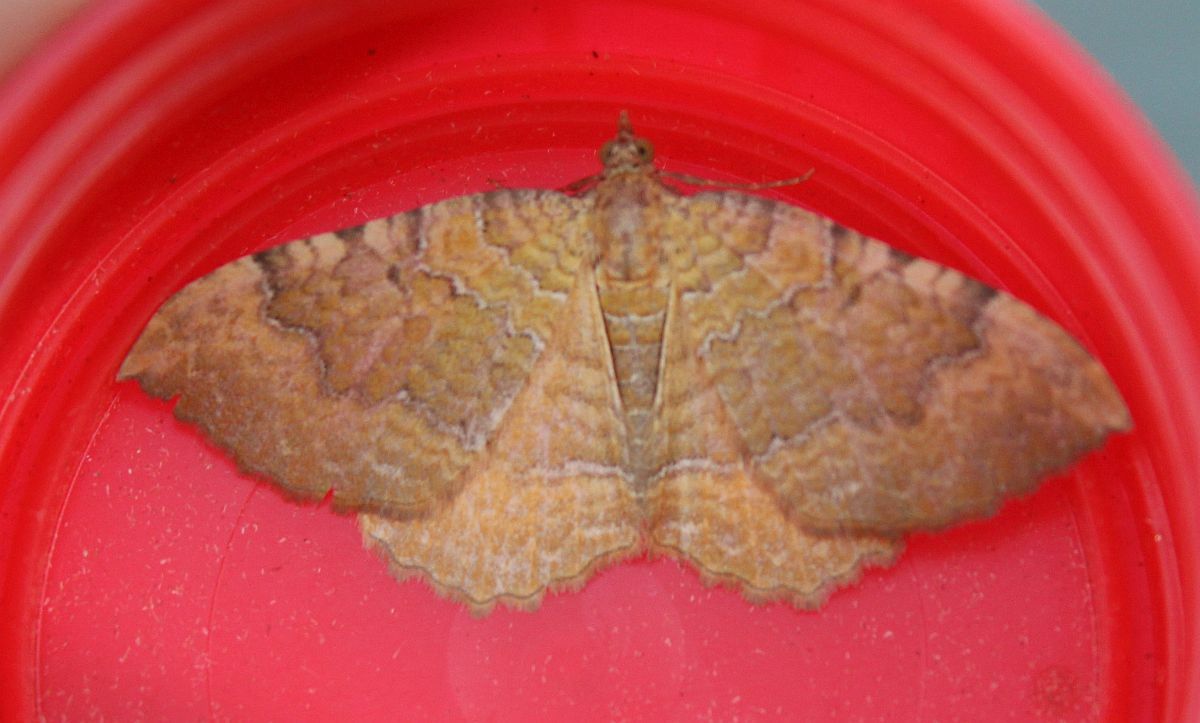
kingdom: Animalia
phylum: Arthropoda
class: Insecta
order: Lepidoptera
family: Geometridae
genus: Camptogramma
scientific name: Camptogramma bilineata
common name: Yellow shell
